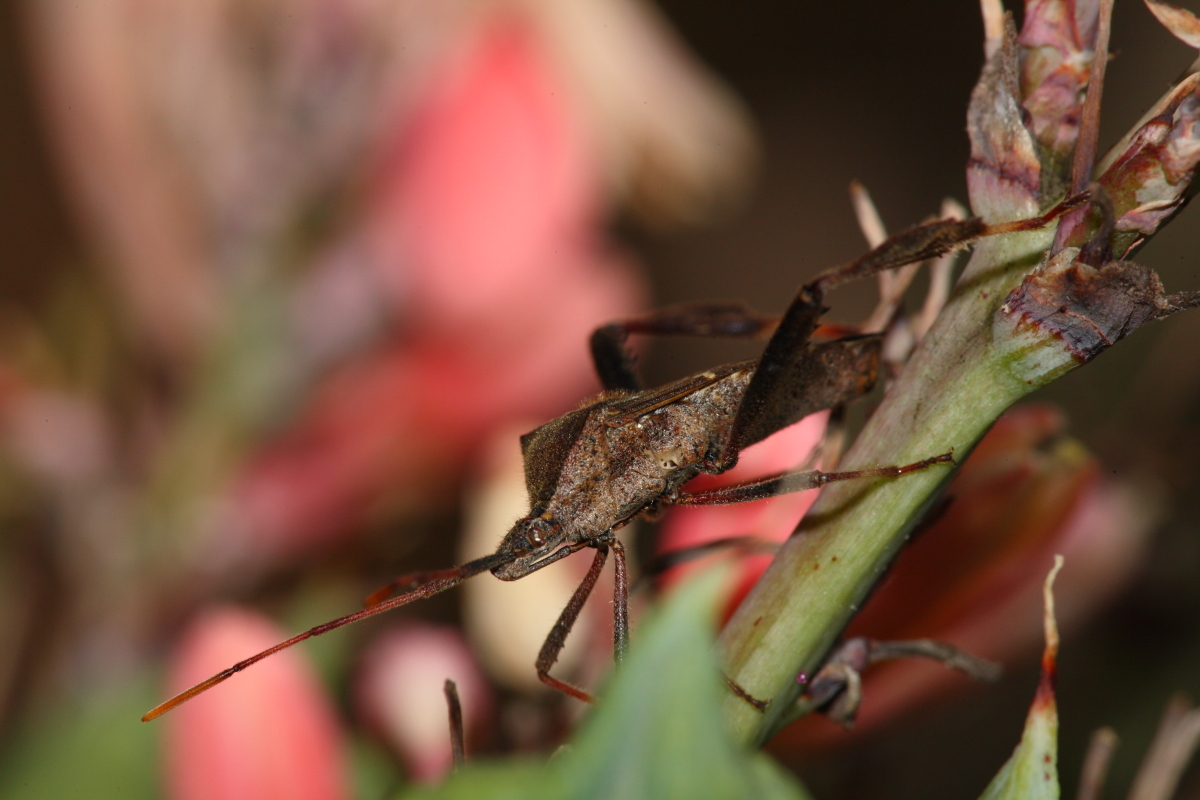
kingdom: Animalia
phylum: Arthropoda
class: Insecta
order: Hemiptera
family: Coreidae
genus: Leptoglossus
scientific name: Leptoglossus phyllopus
